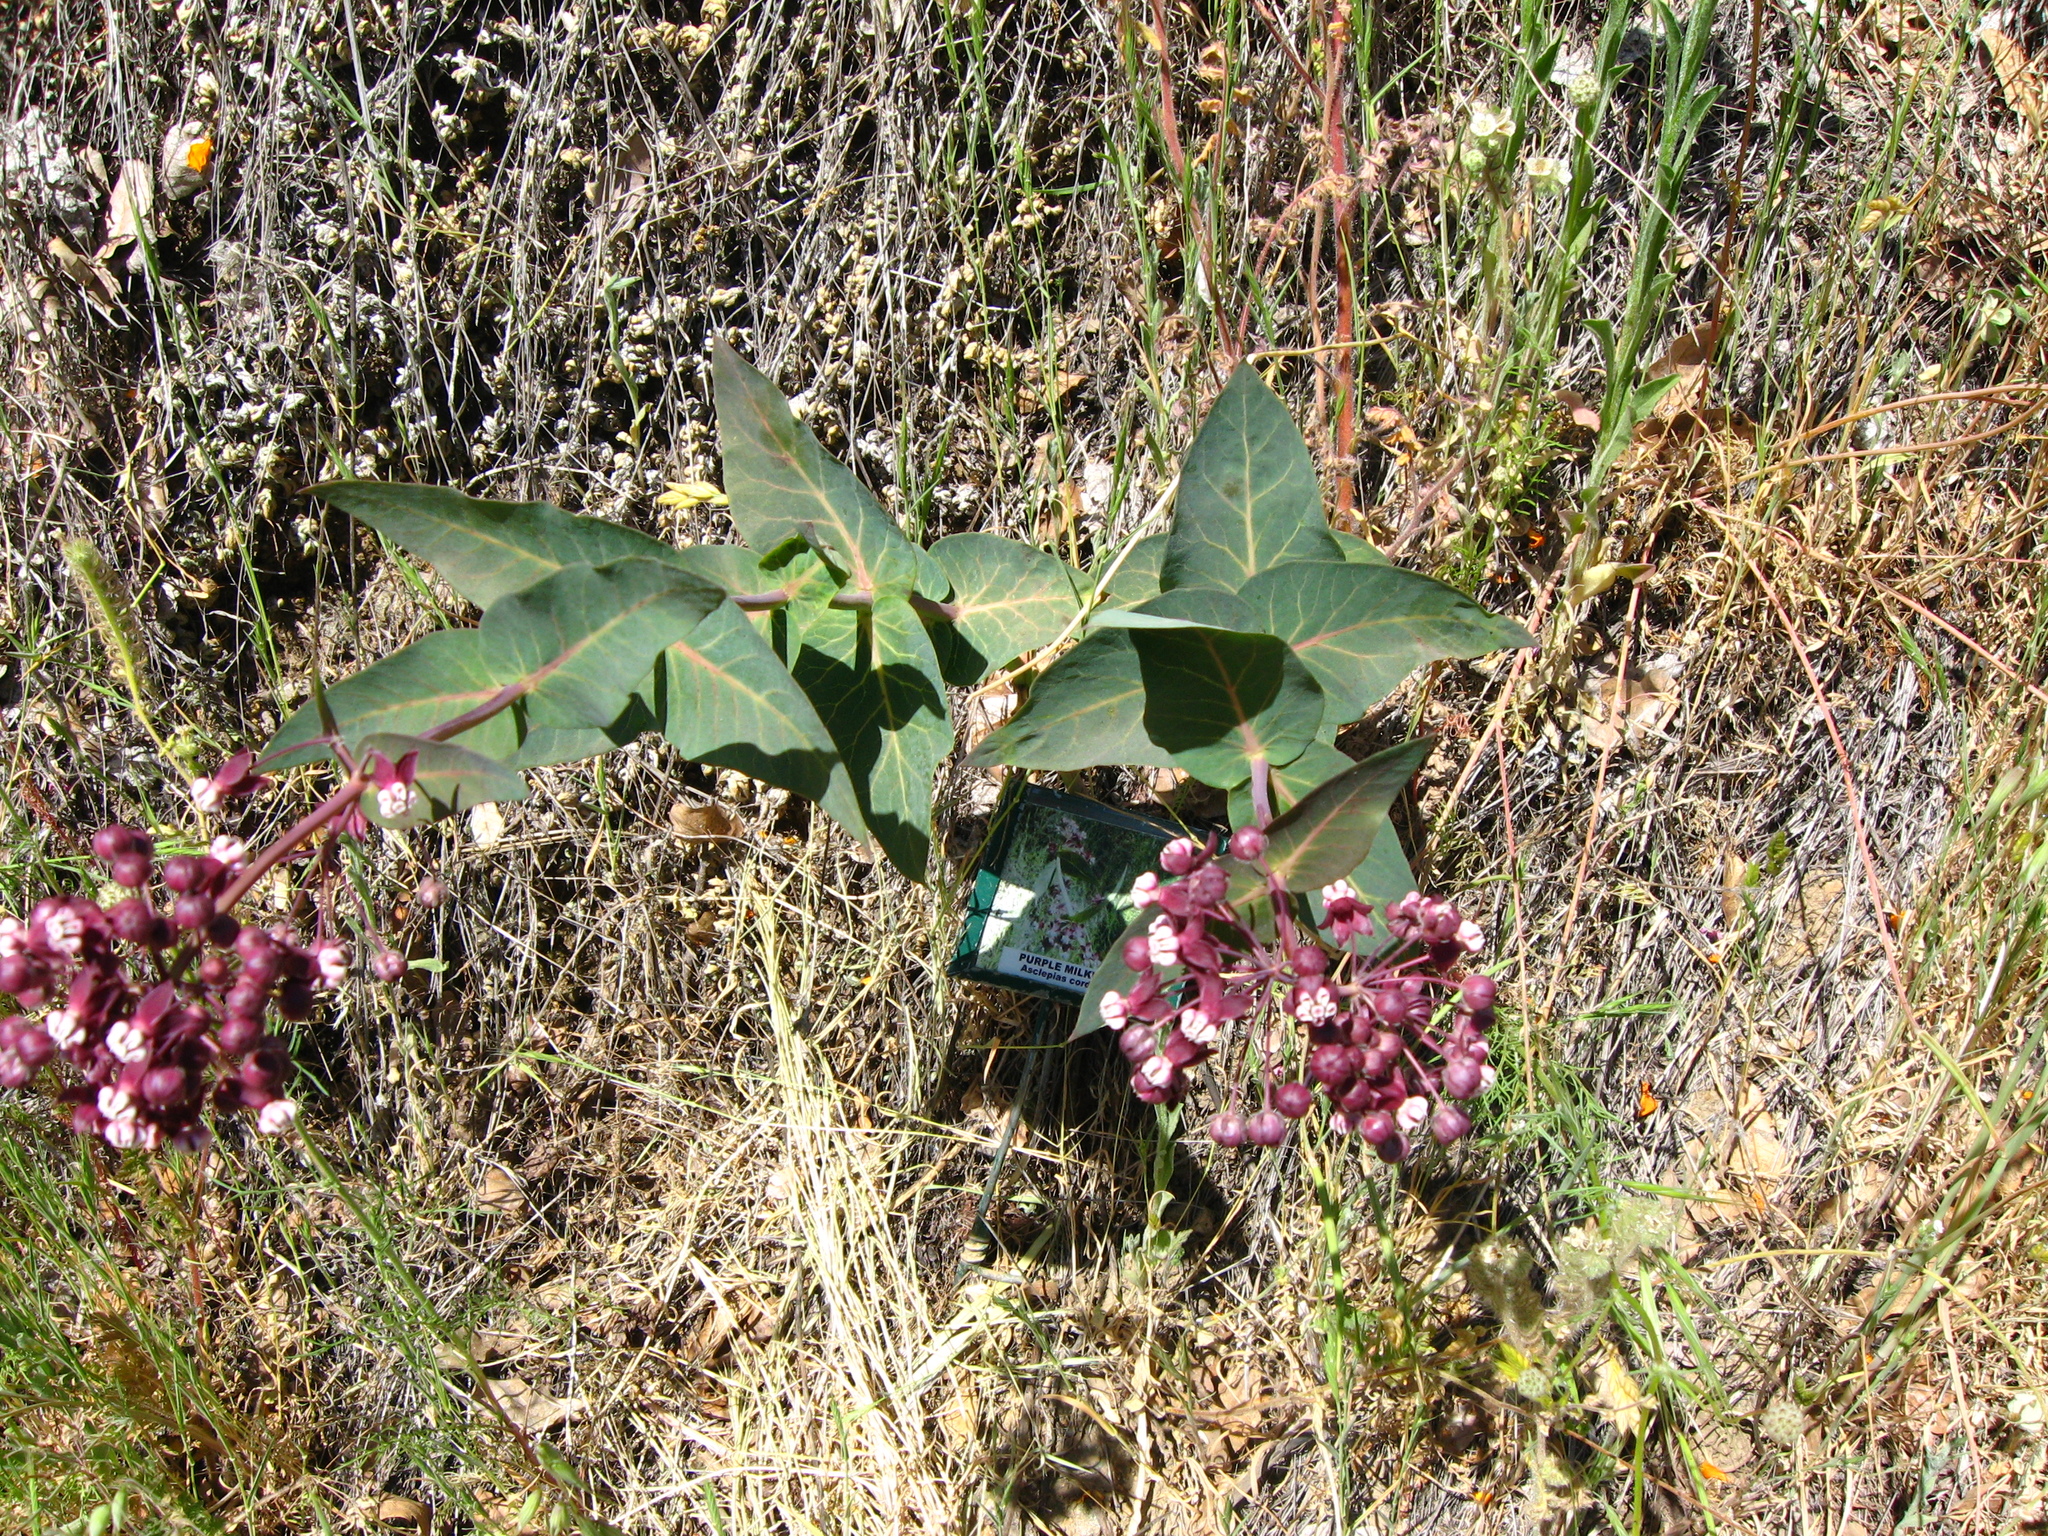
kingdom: Plantae
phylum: Tracheophyta
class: Magnoliopsida
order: Gentianales
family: Apocynaceae
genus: Asclepias
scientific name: Asclepias cordifolia
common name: Purple milkweed
